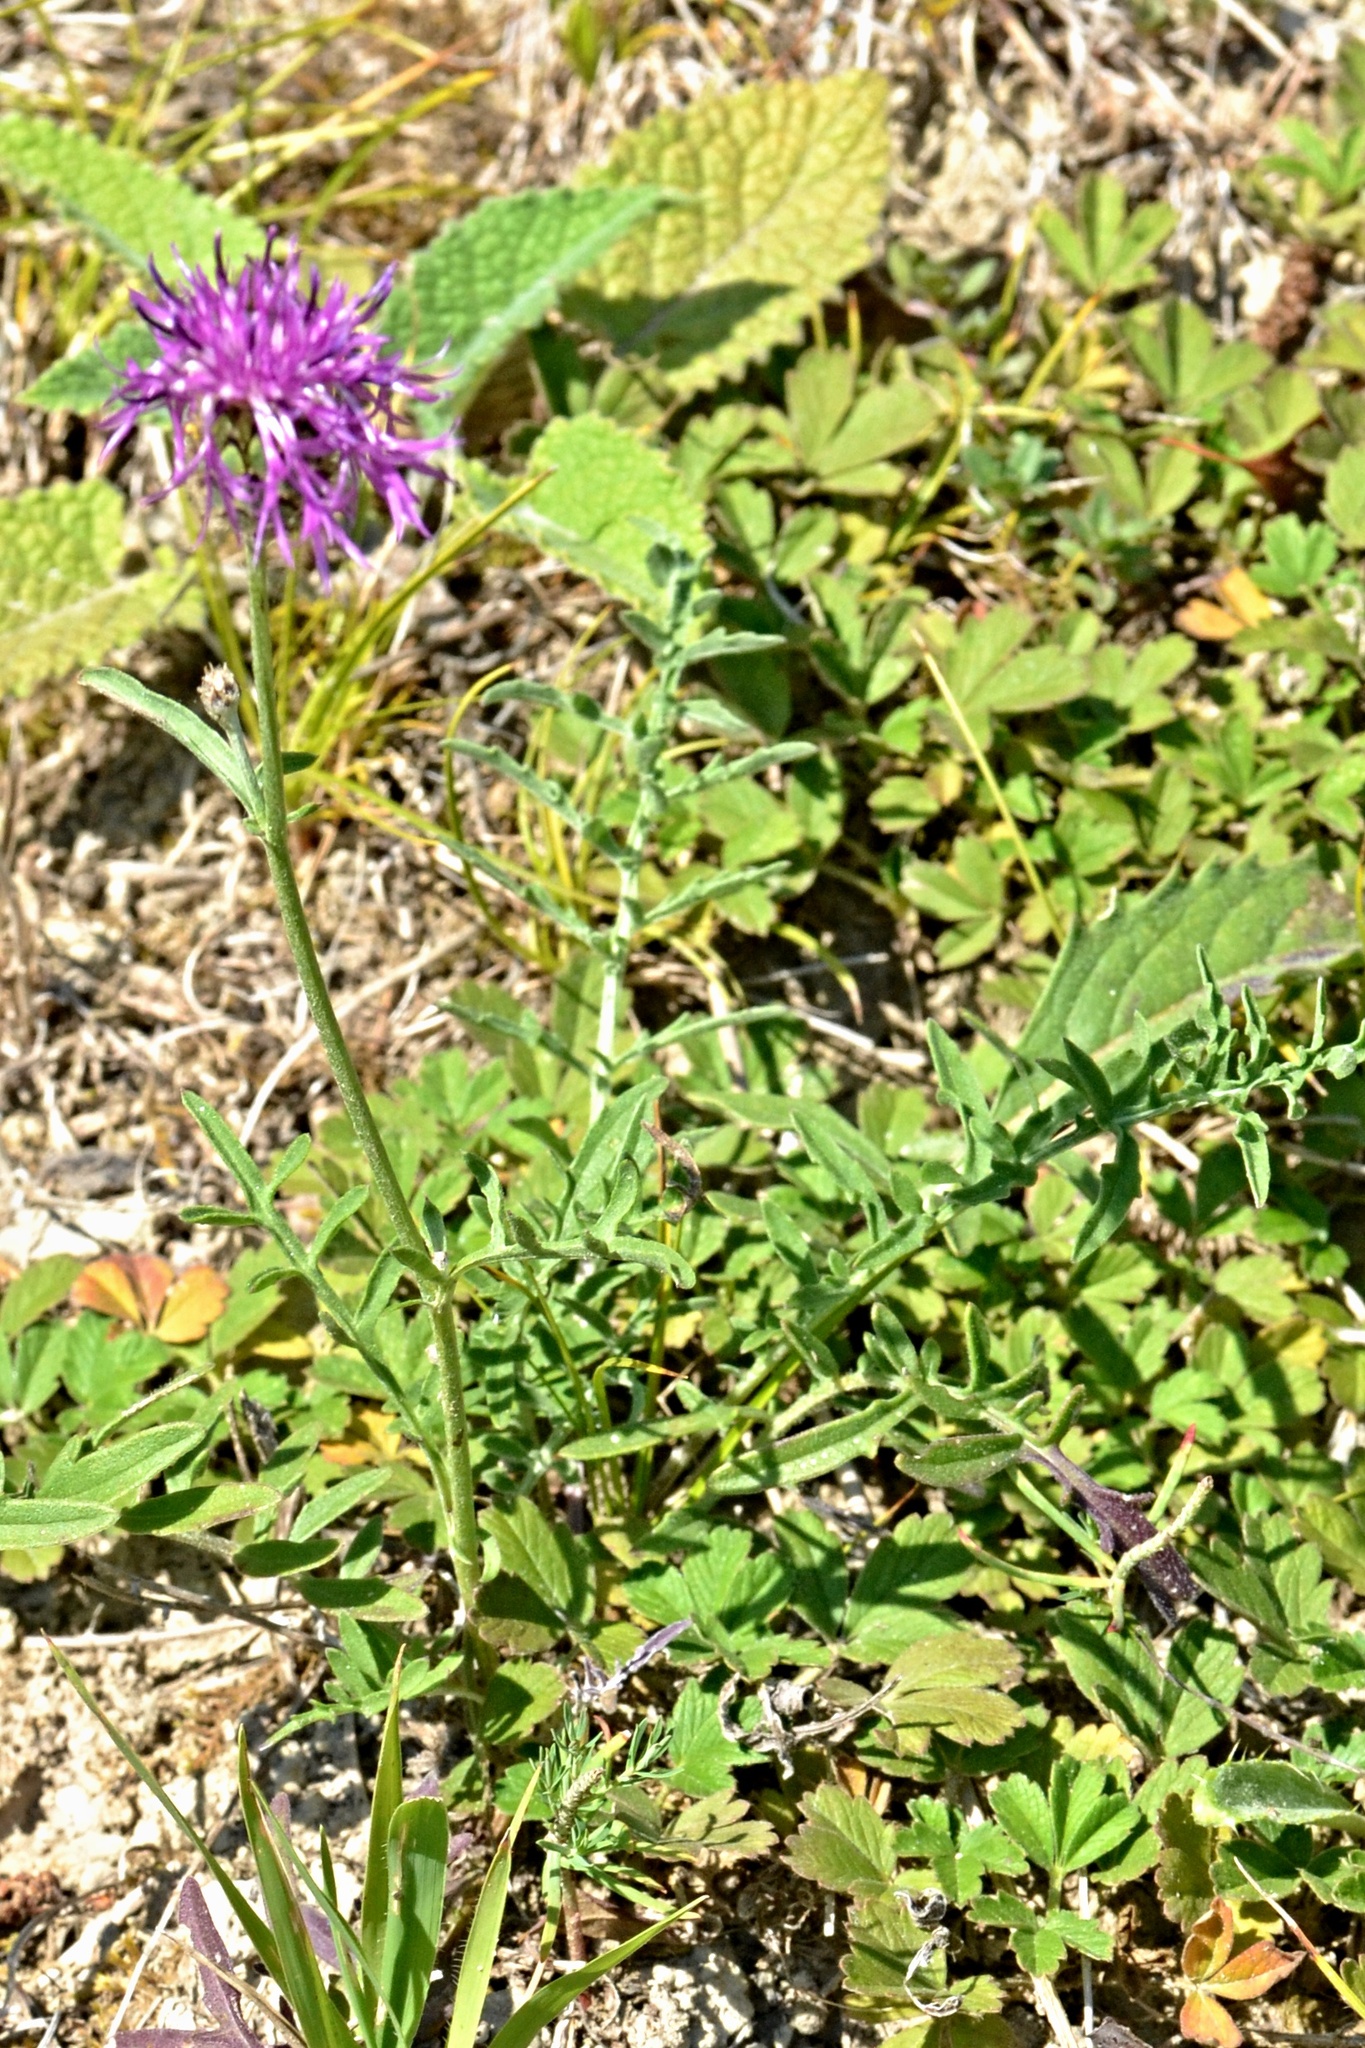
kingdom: Plantae
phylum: Tracheophyta
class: Magnoliopsida
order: Asterales
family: Asteraceae
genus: Centaurea
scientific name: Centaurea scabiosa
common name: Greater knapweed
